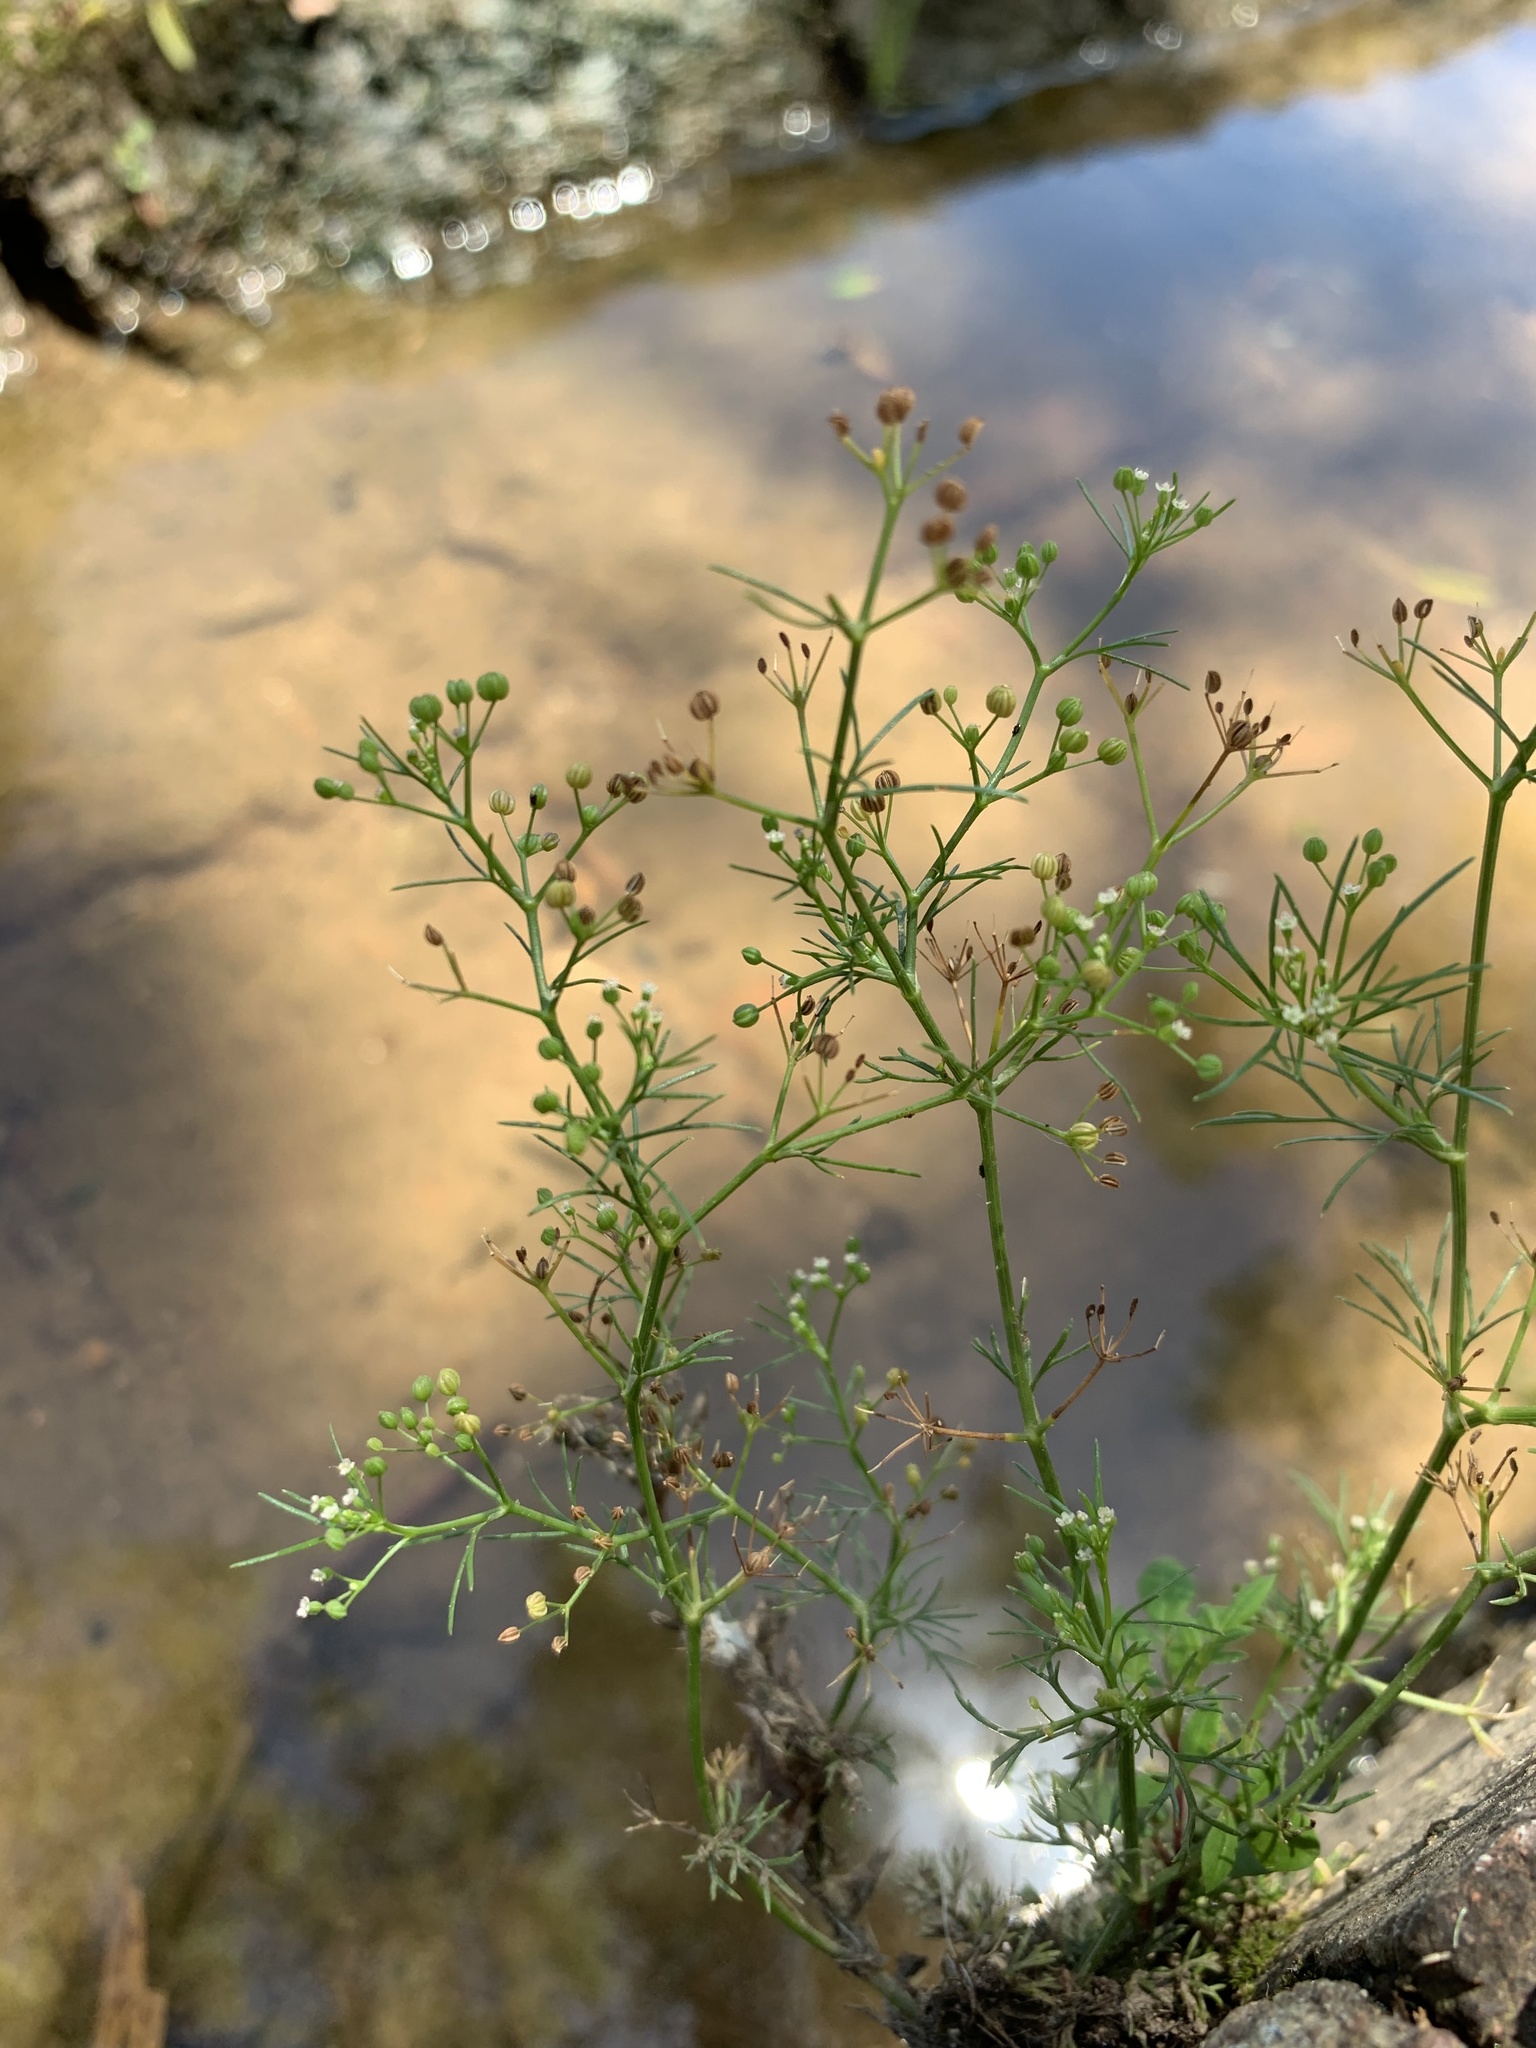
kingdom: Plantae
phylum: Tracheophyta
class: Magnoliopsida
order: Apiales
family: Apiaceae
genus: Cyclospermum
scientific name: Cyclospermum leptophyllum
